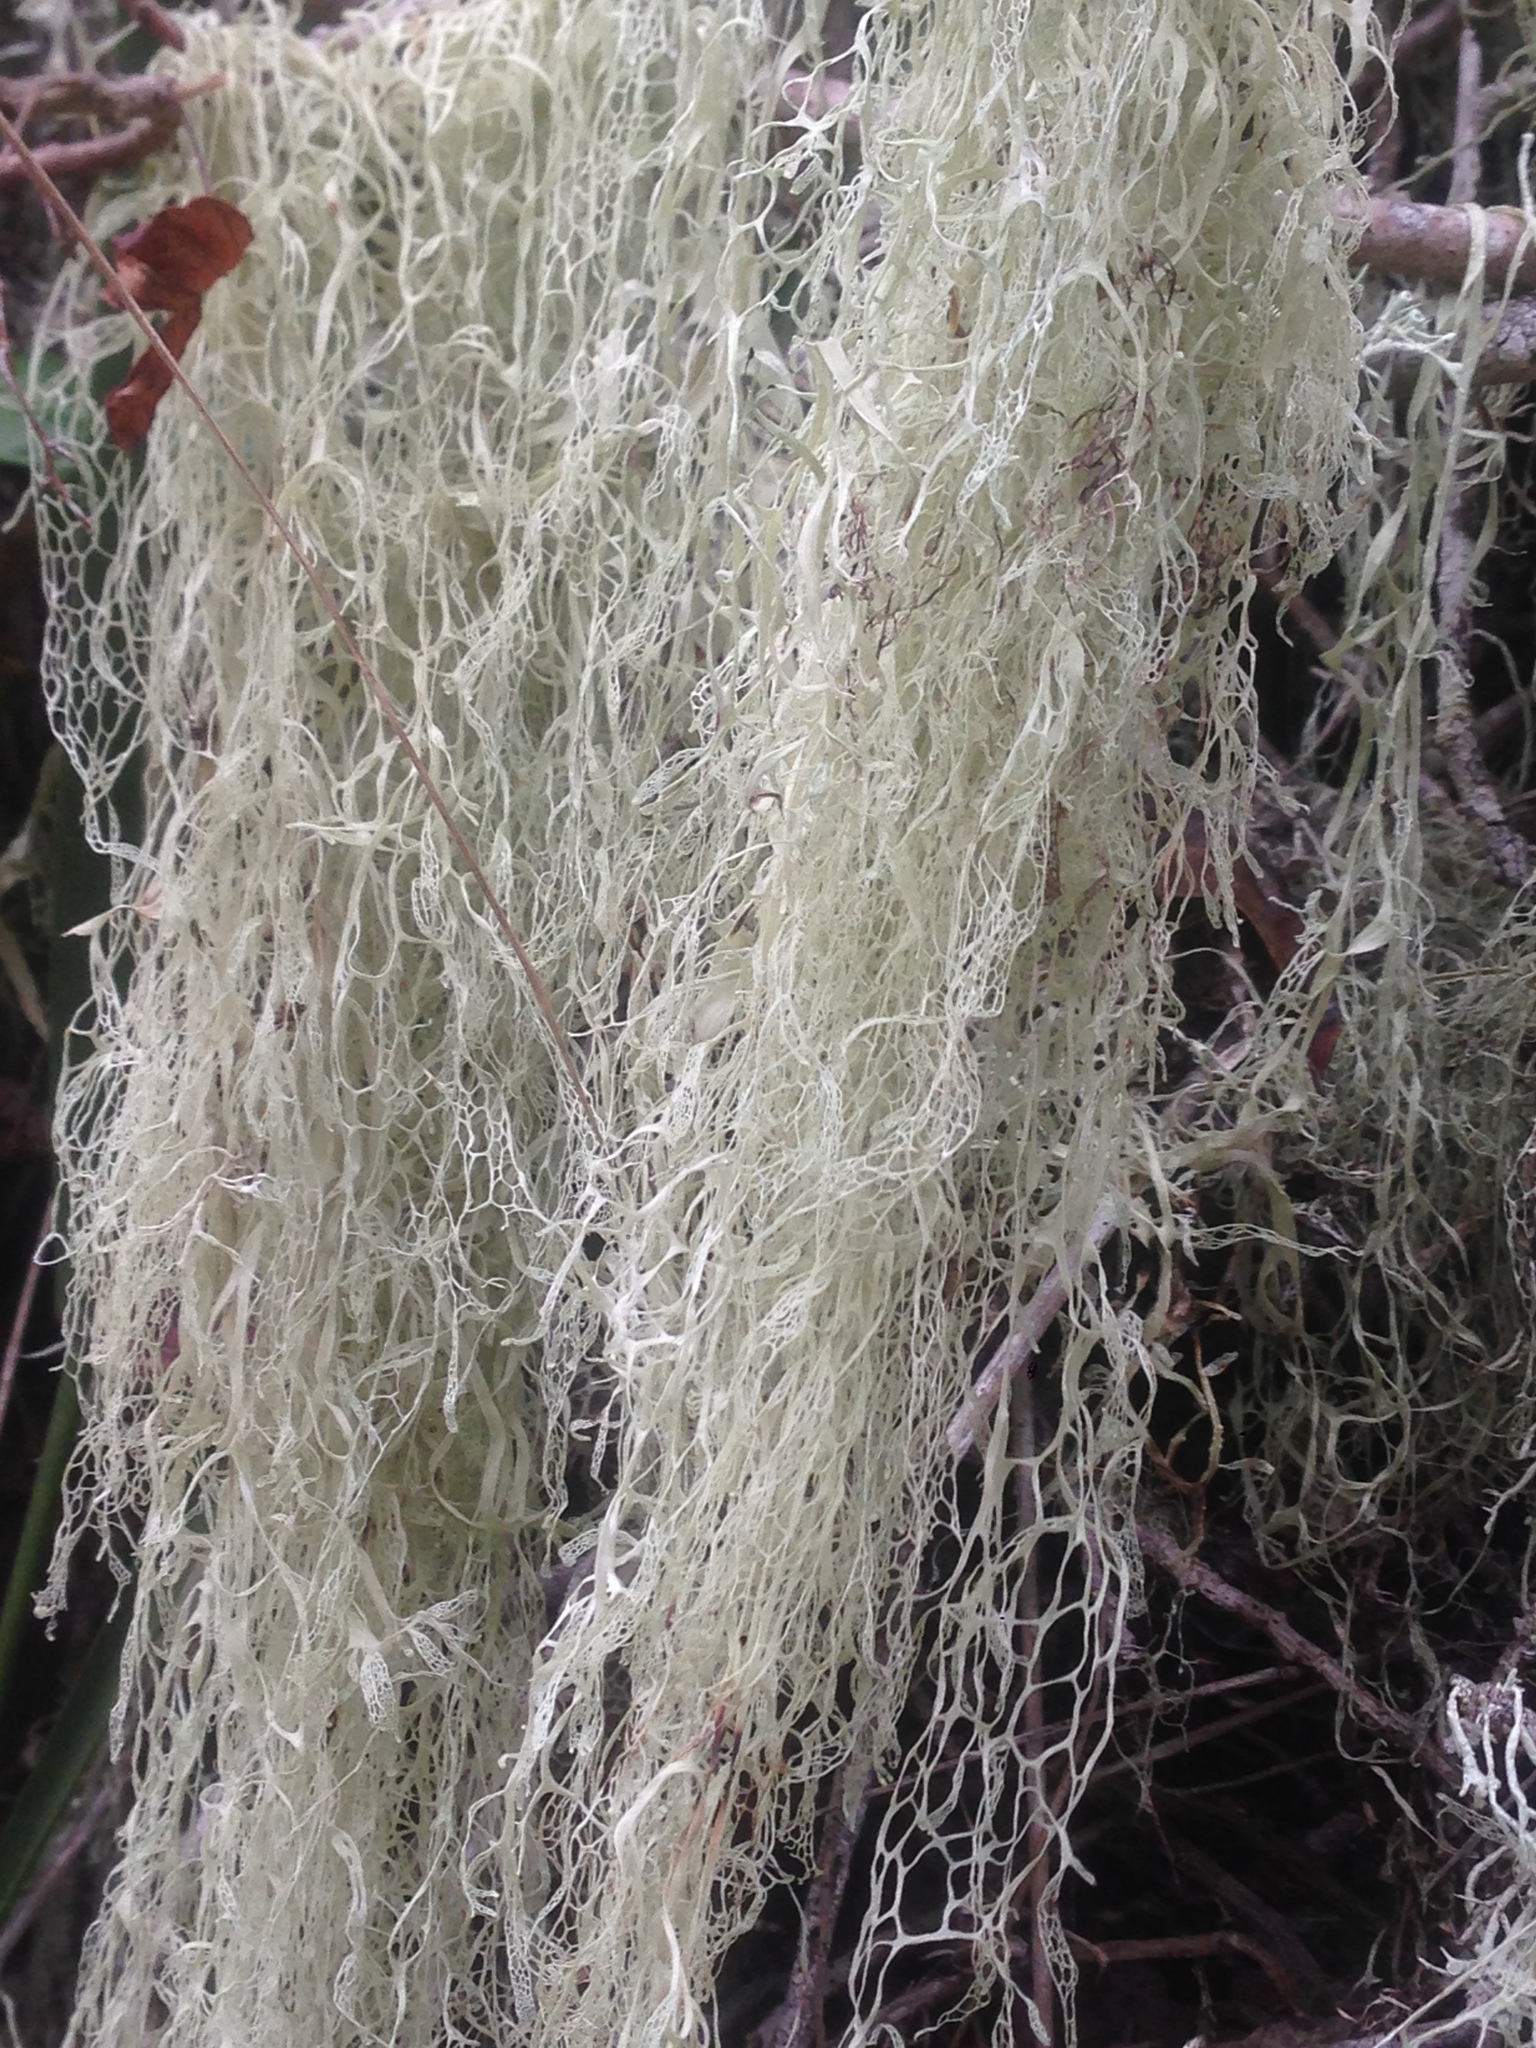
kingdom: Fungi
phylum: Ascomycota
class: Lecanoromycetes
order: Lecanorales
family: Ramalinaceae
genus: Ramalina
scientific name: Ramalina menziesii
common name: Lace lichen
